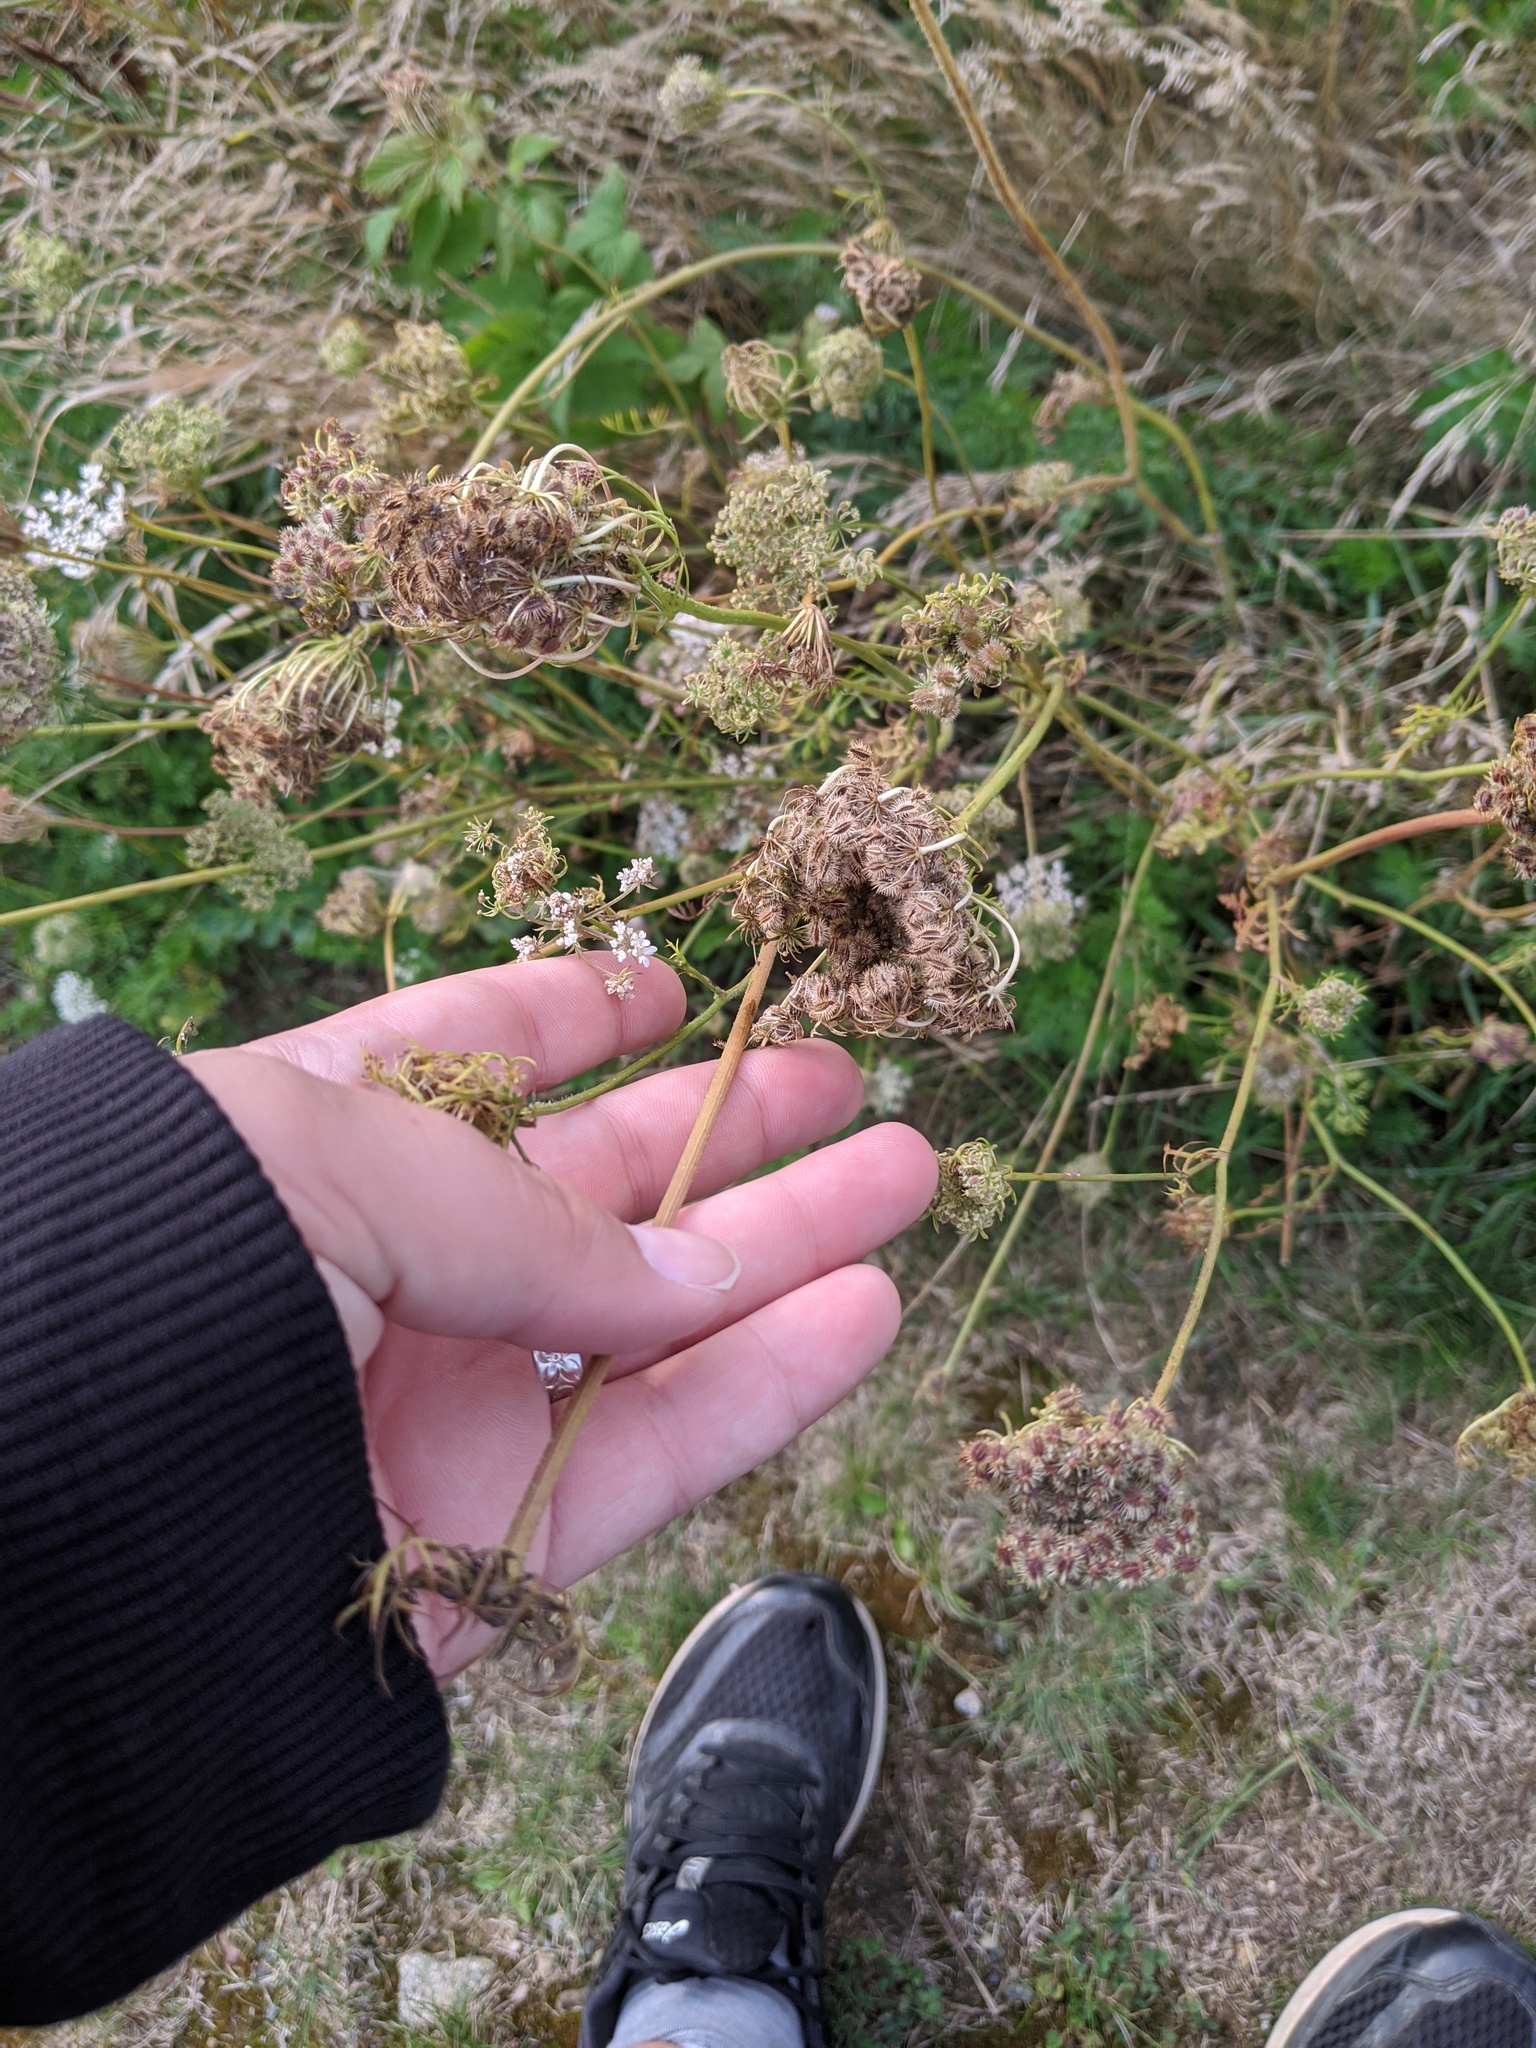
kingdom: Plantae
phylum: Tracheophyta
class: Magnoliopsida
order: Apiales
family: Apiaceae
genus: Daucus
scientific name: Daucus carota
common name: Wild carrot
